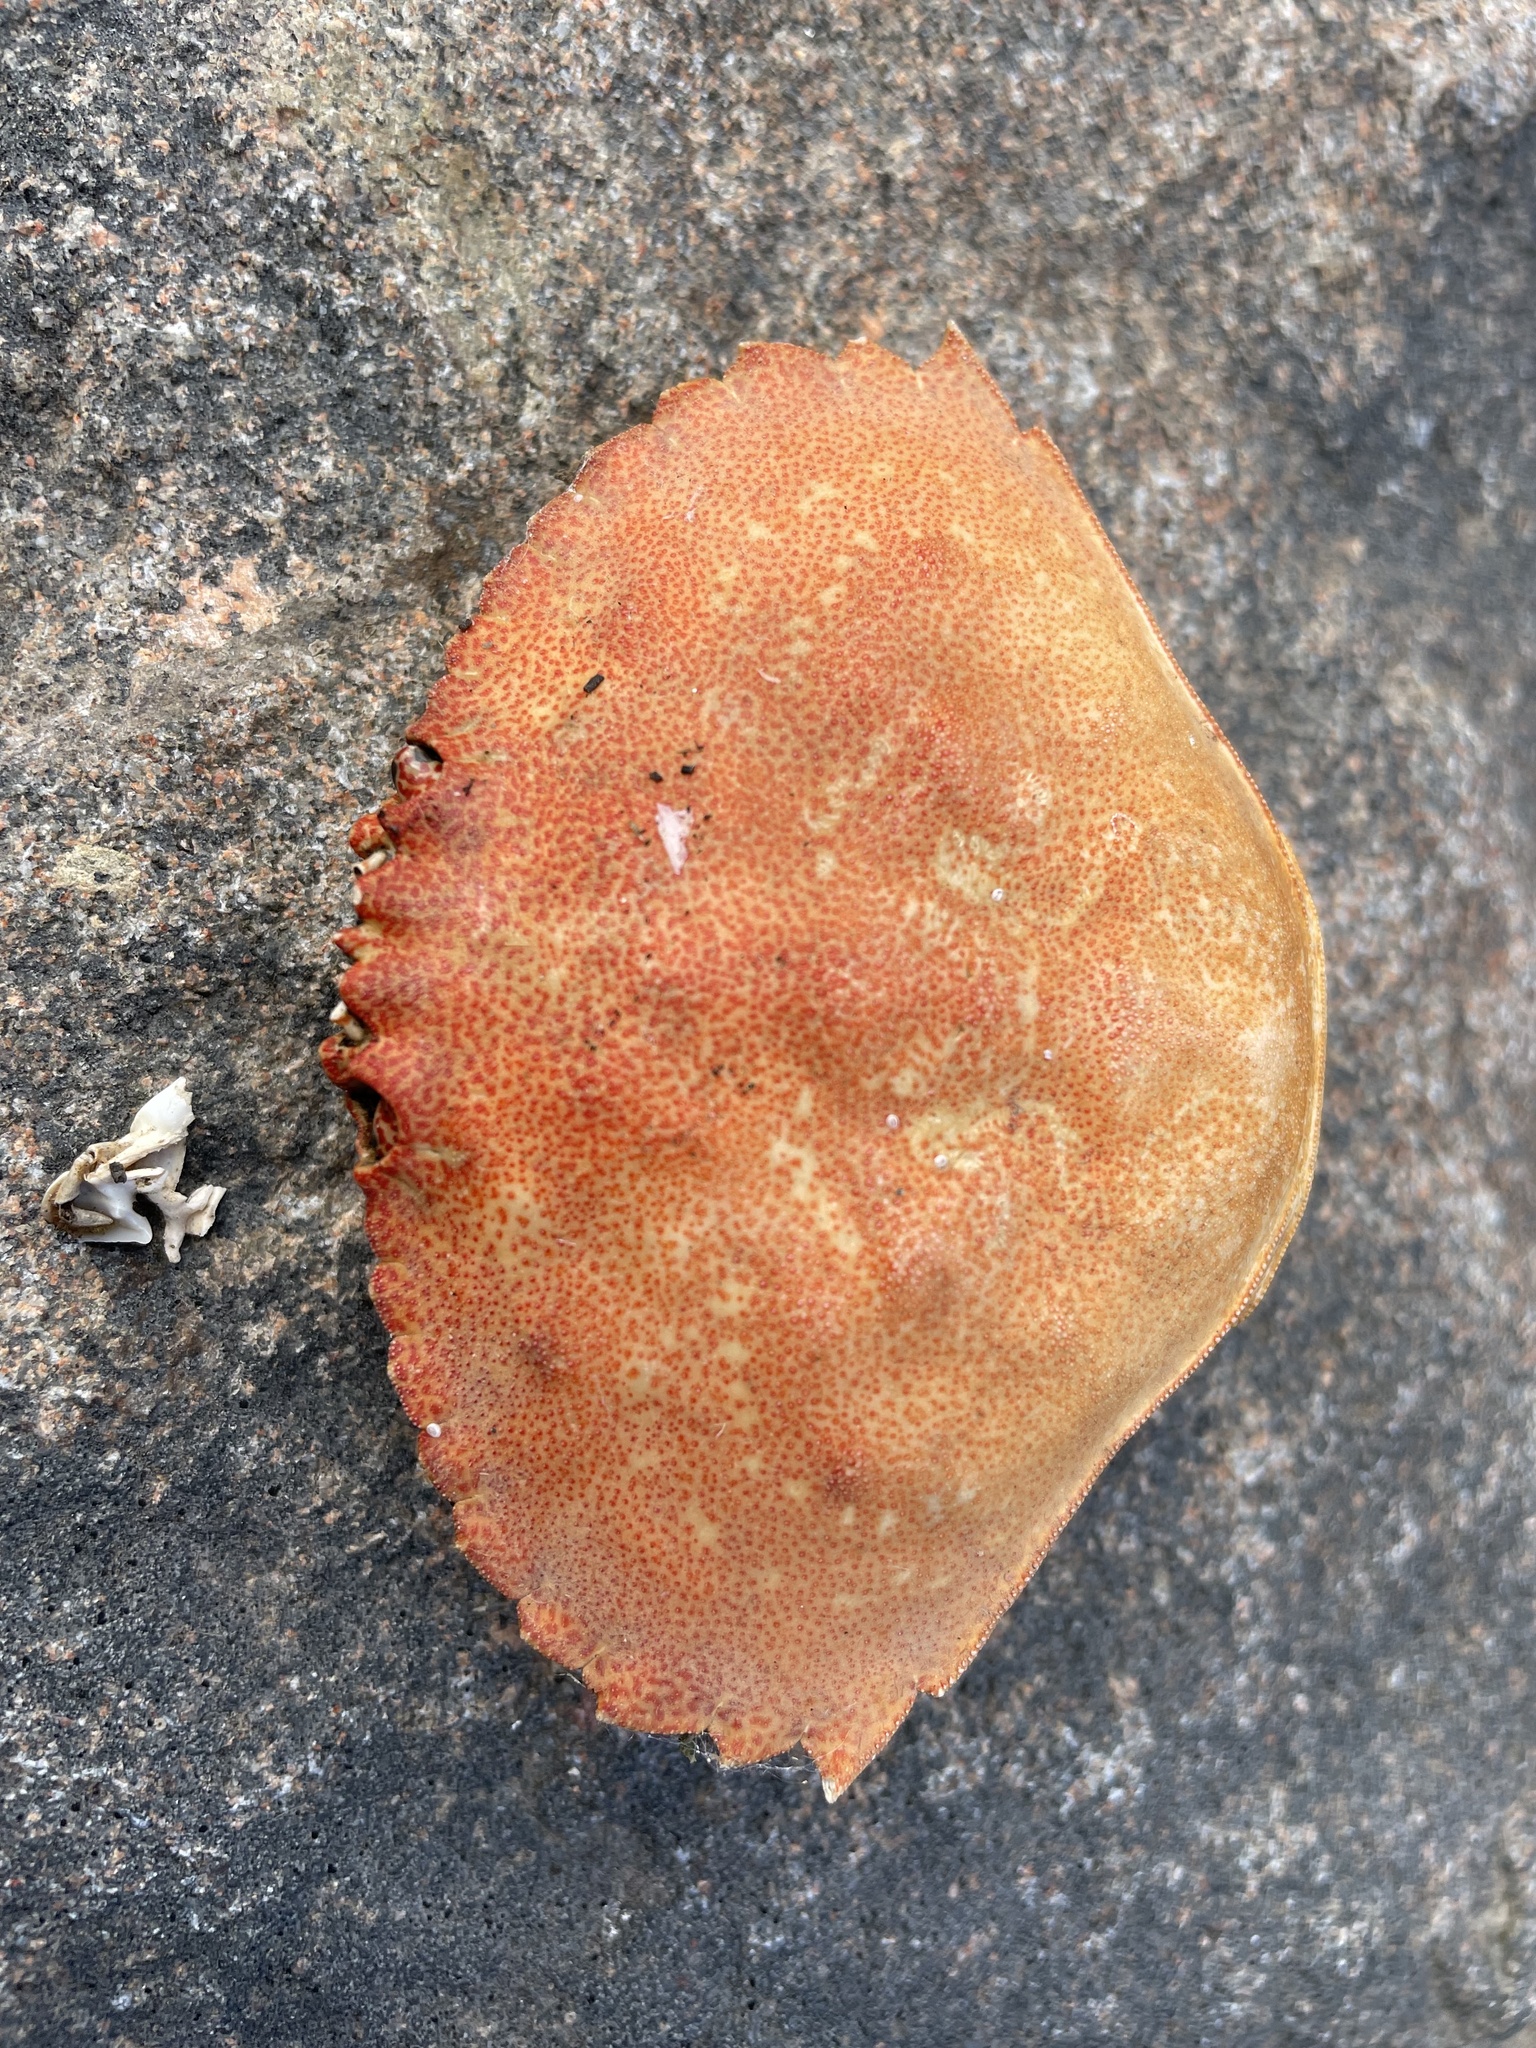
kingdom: Animalia
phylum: Arthropoda
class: Malacostraca
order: Decapoda
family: Cancridae
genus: Cancer
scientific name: Cancer irroratus
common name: Atlantic rock crab
